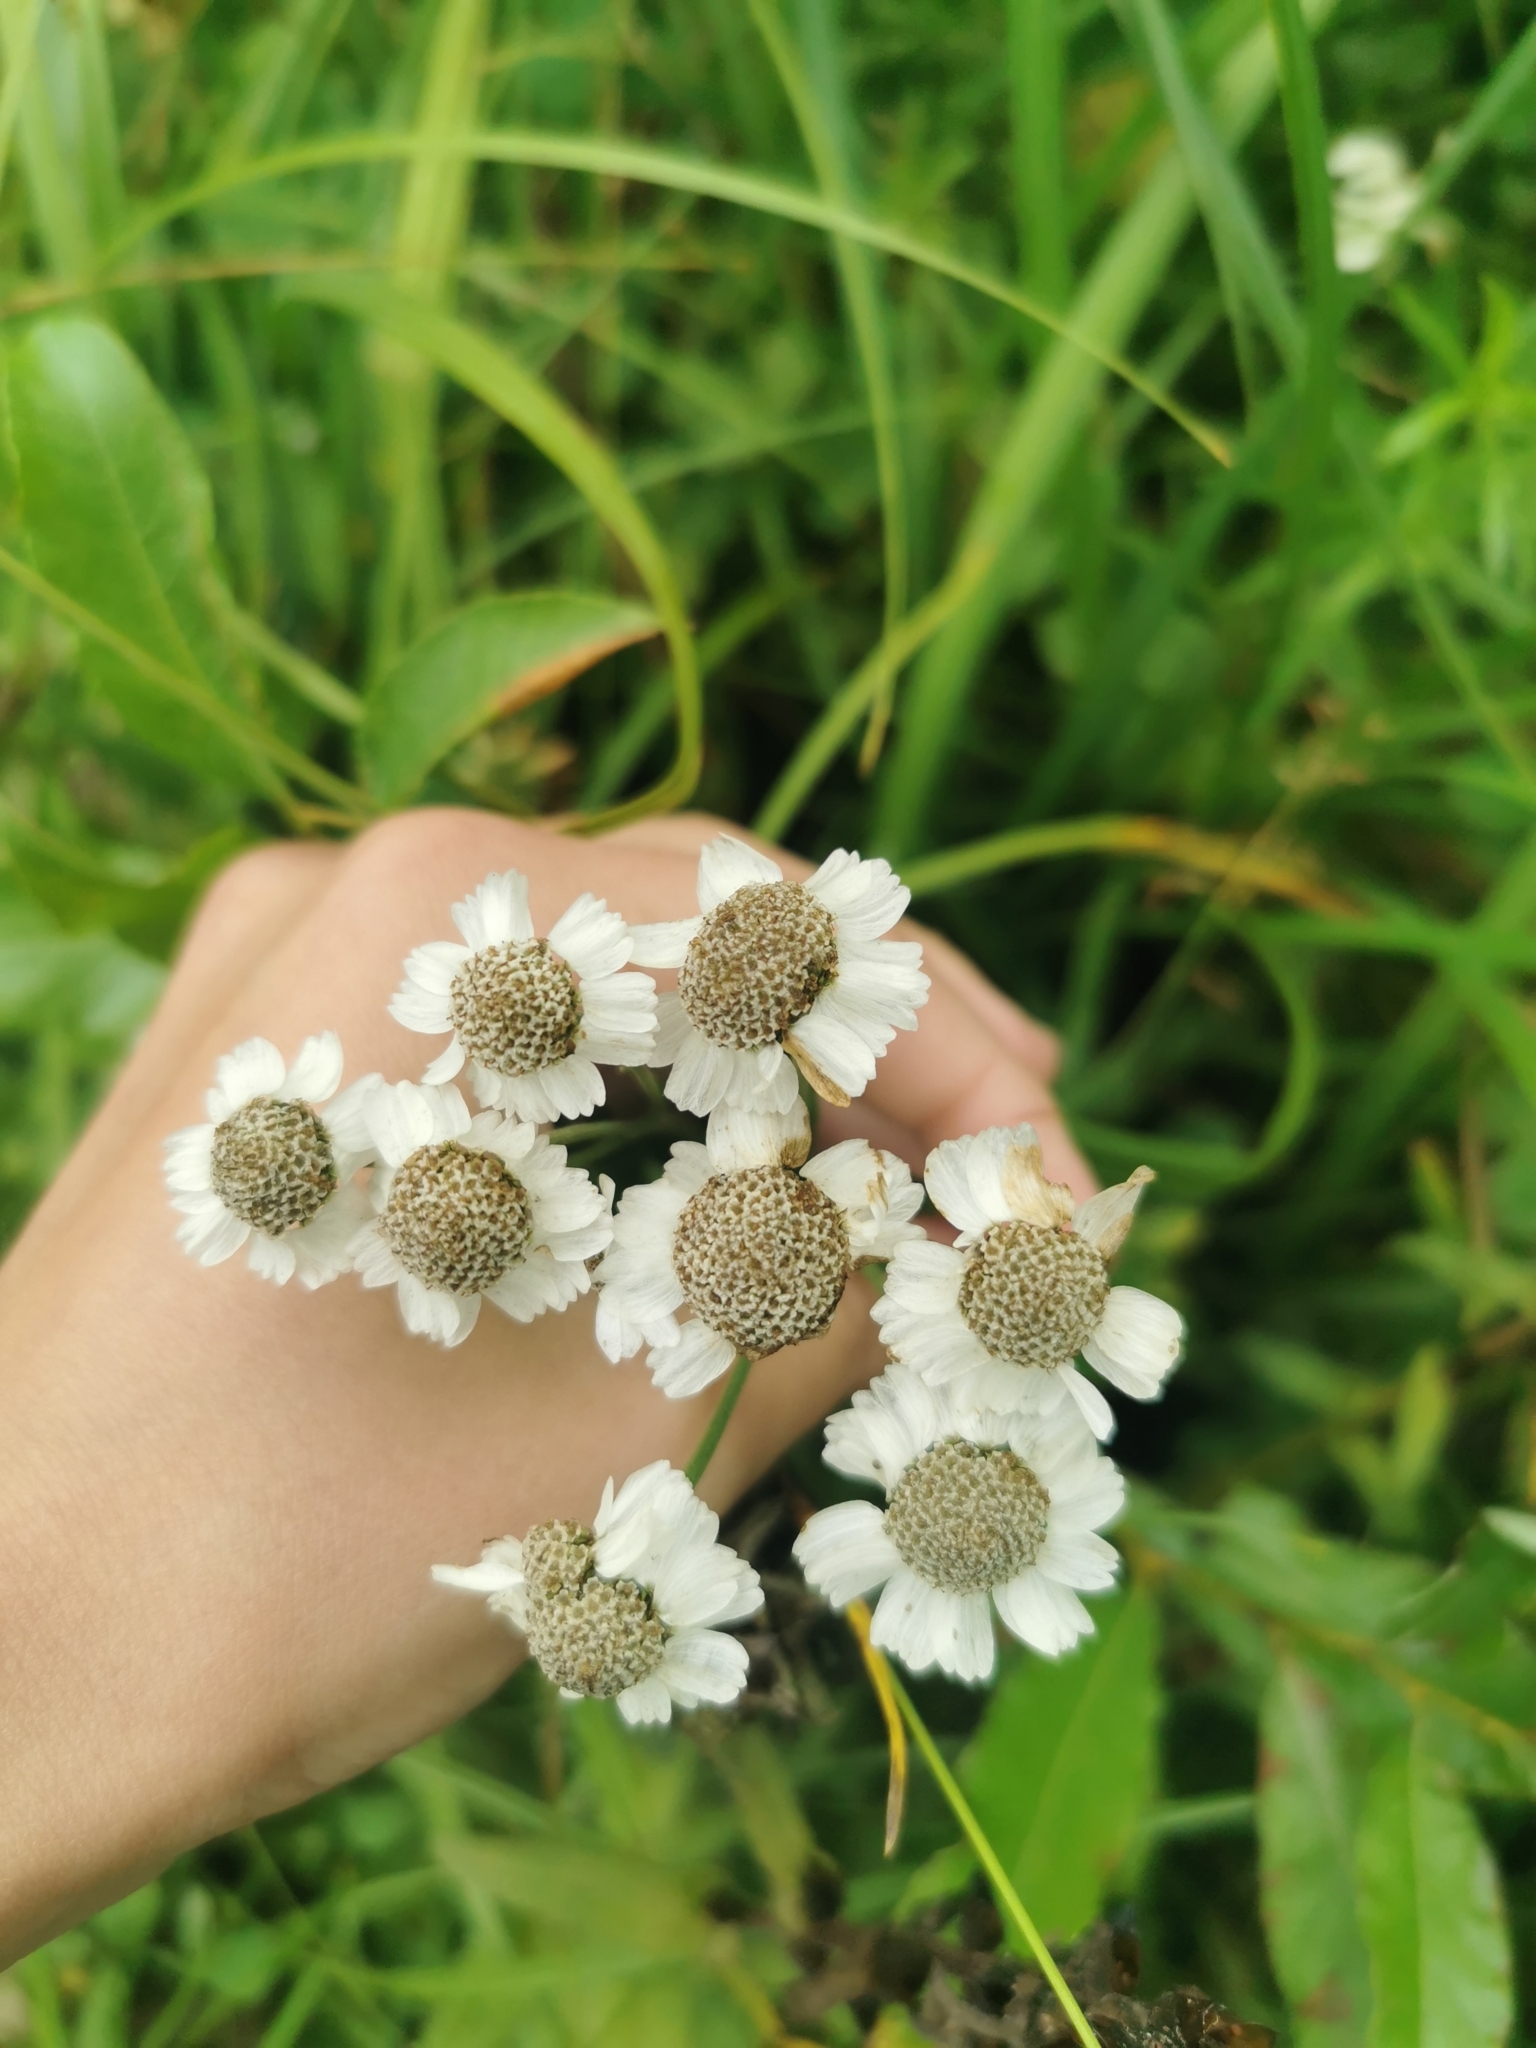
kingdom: Plantae
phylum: Tracheophyta
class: Magnoliopsida
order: Asterales
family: Asteraceae
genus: Achillea
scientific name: Achillea ptarmica
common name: Sneezeweed
